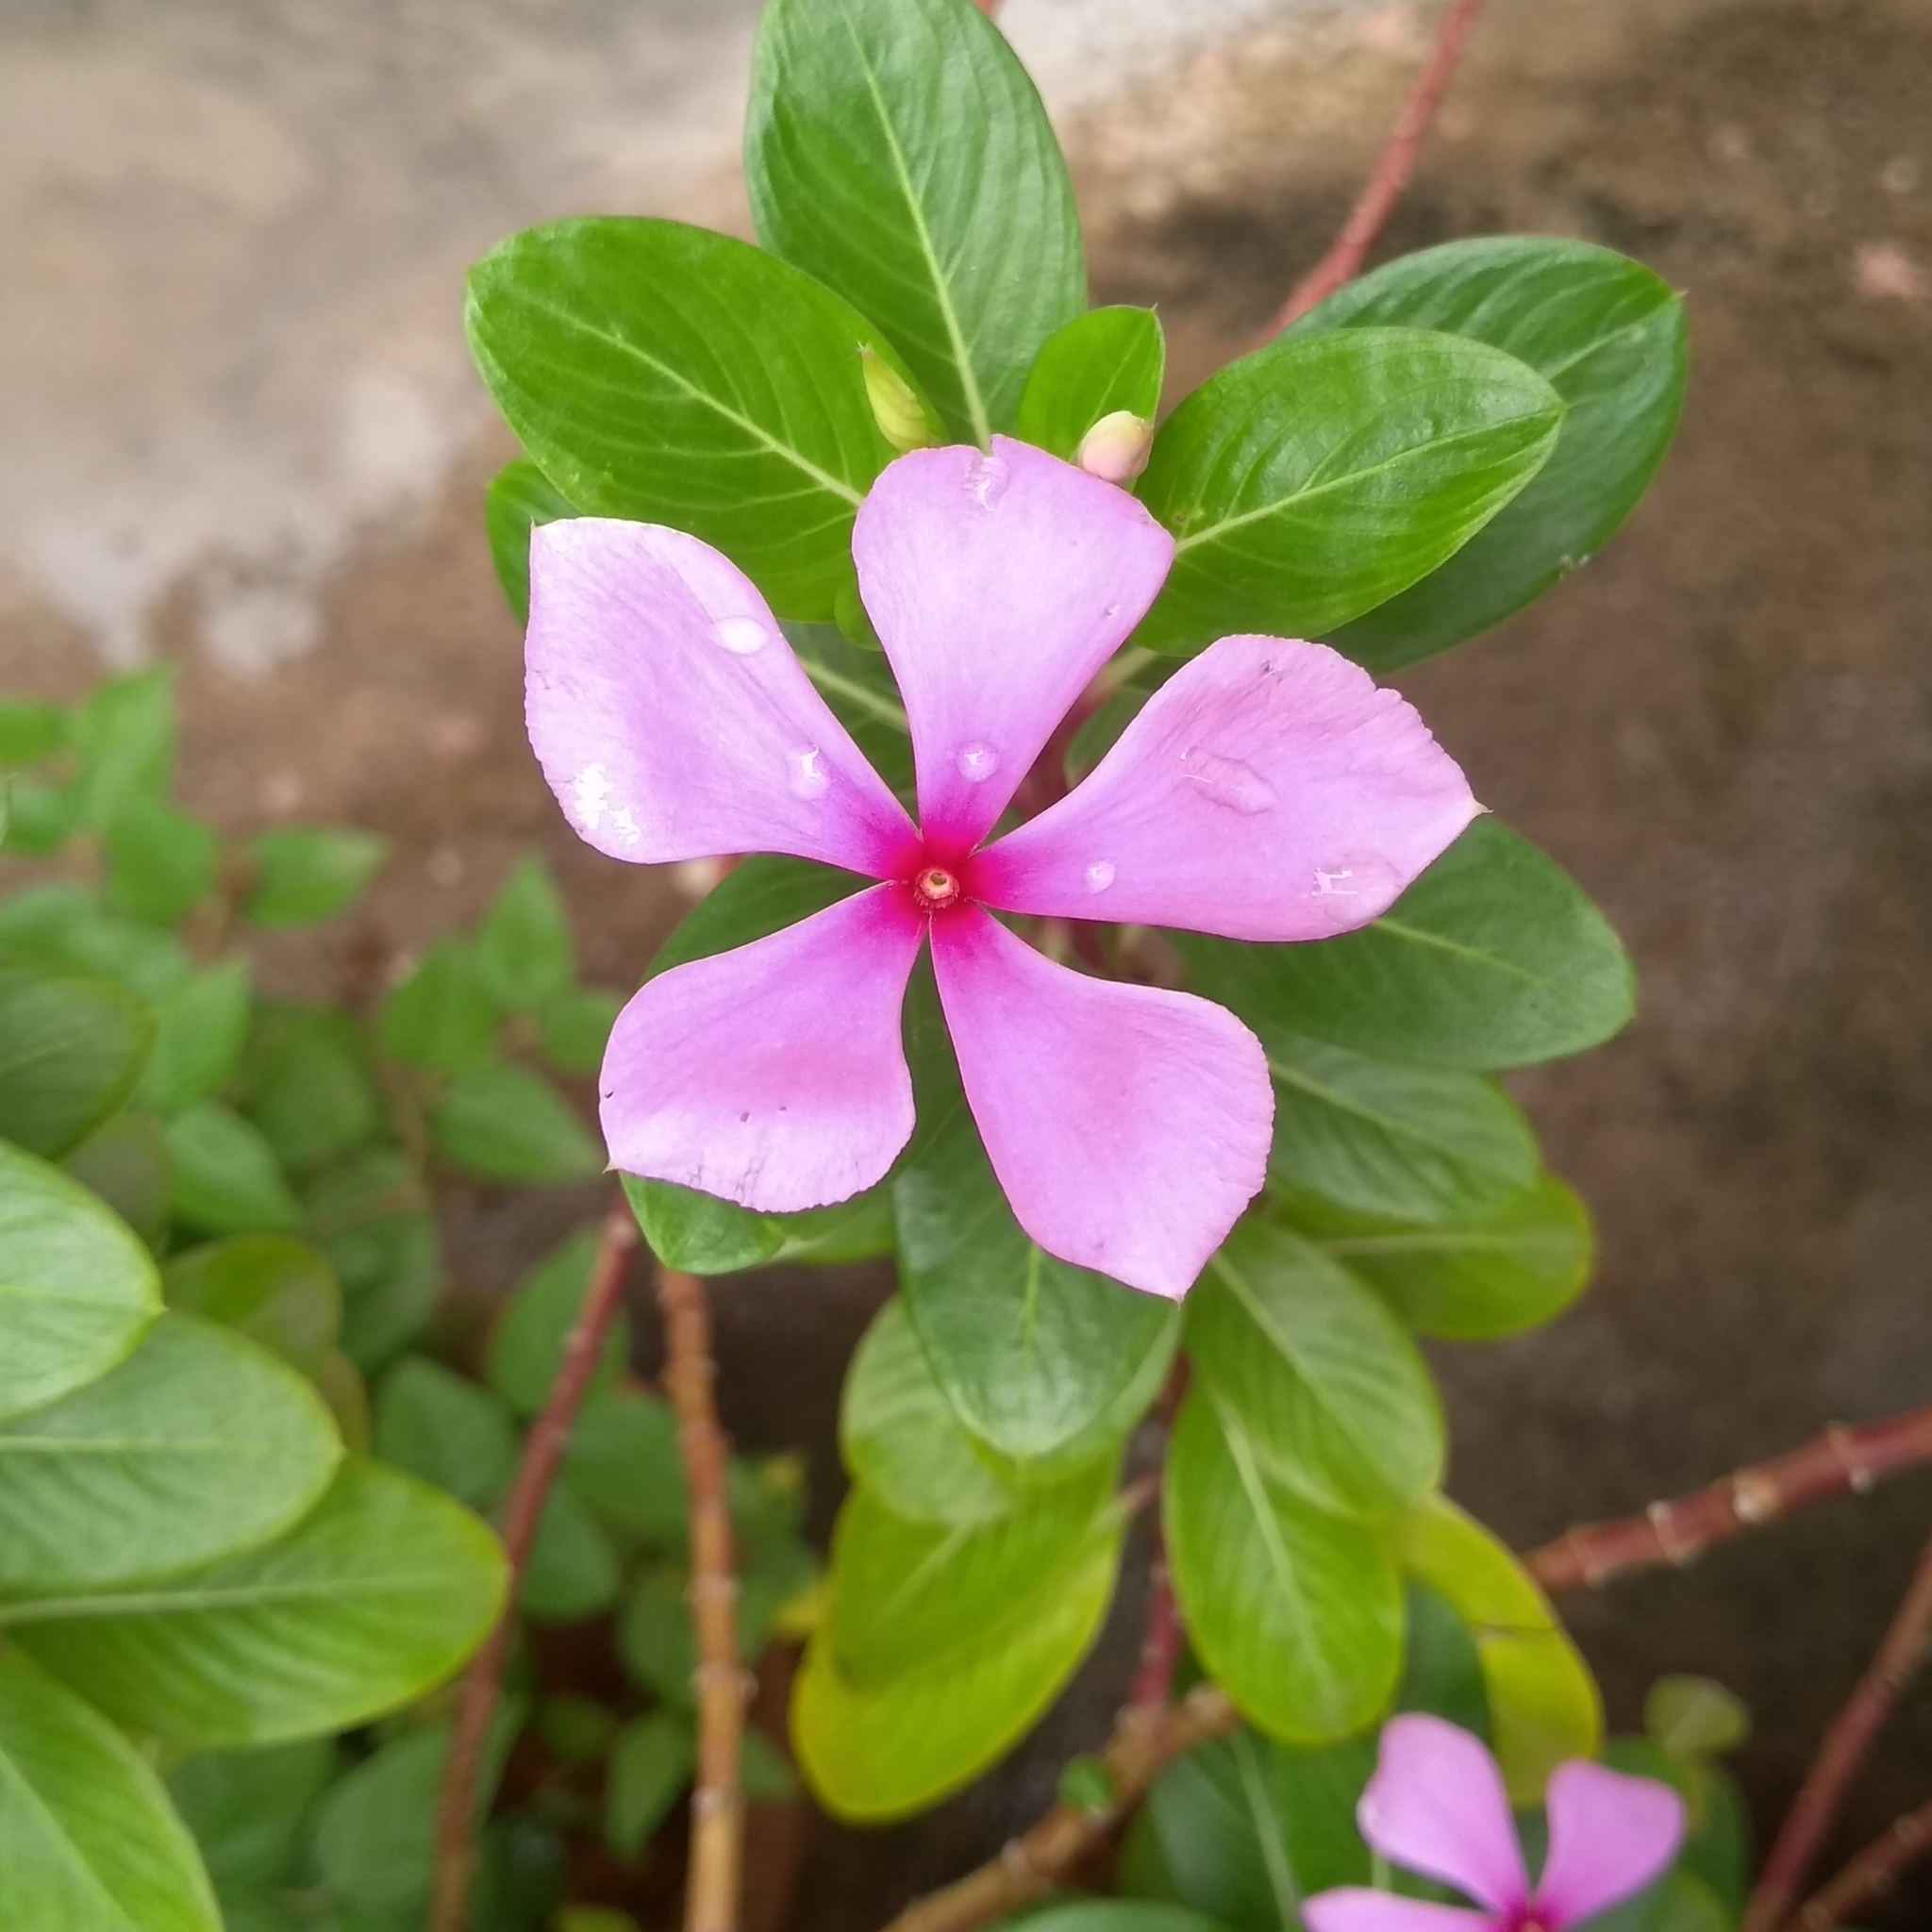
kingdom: Plantae
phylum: Tracheophyta
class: Magnoliopsida
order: Gentianales
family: Apocynaceae
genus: Catharanthus
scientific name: Catharanthus roseus
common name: Madagascar periwinkle
